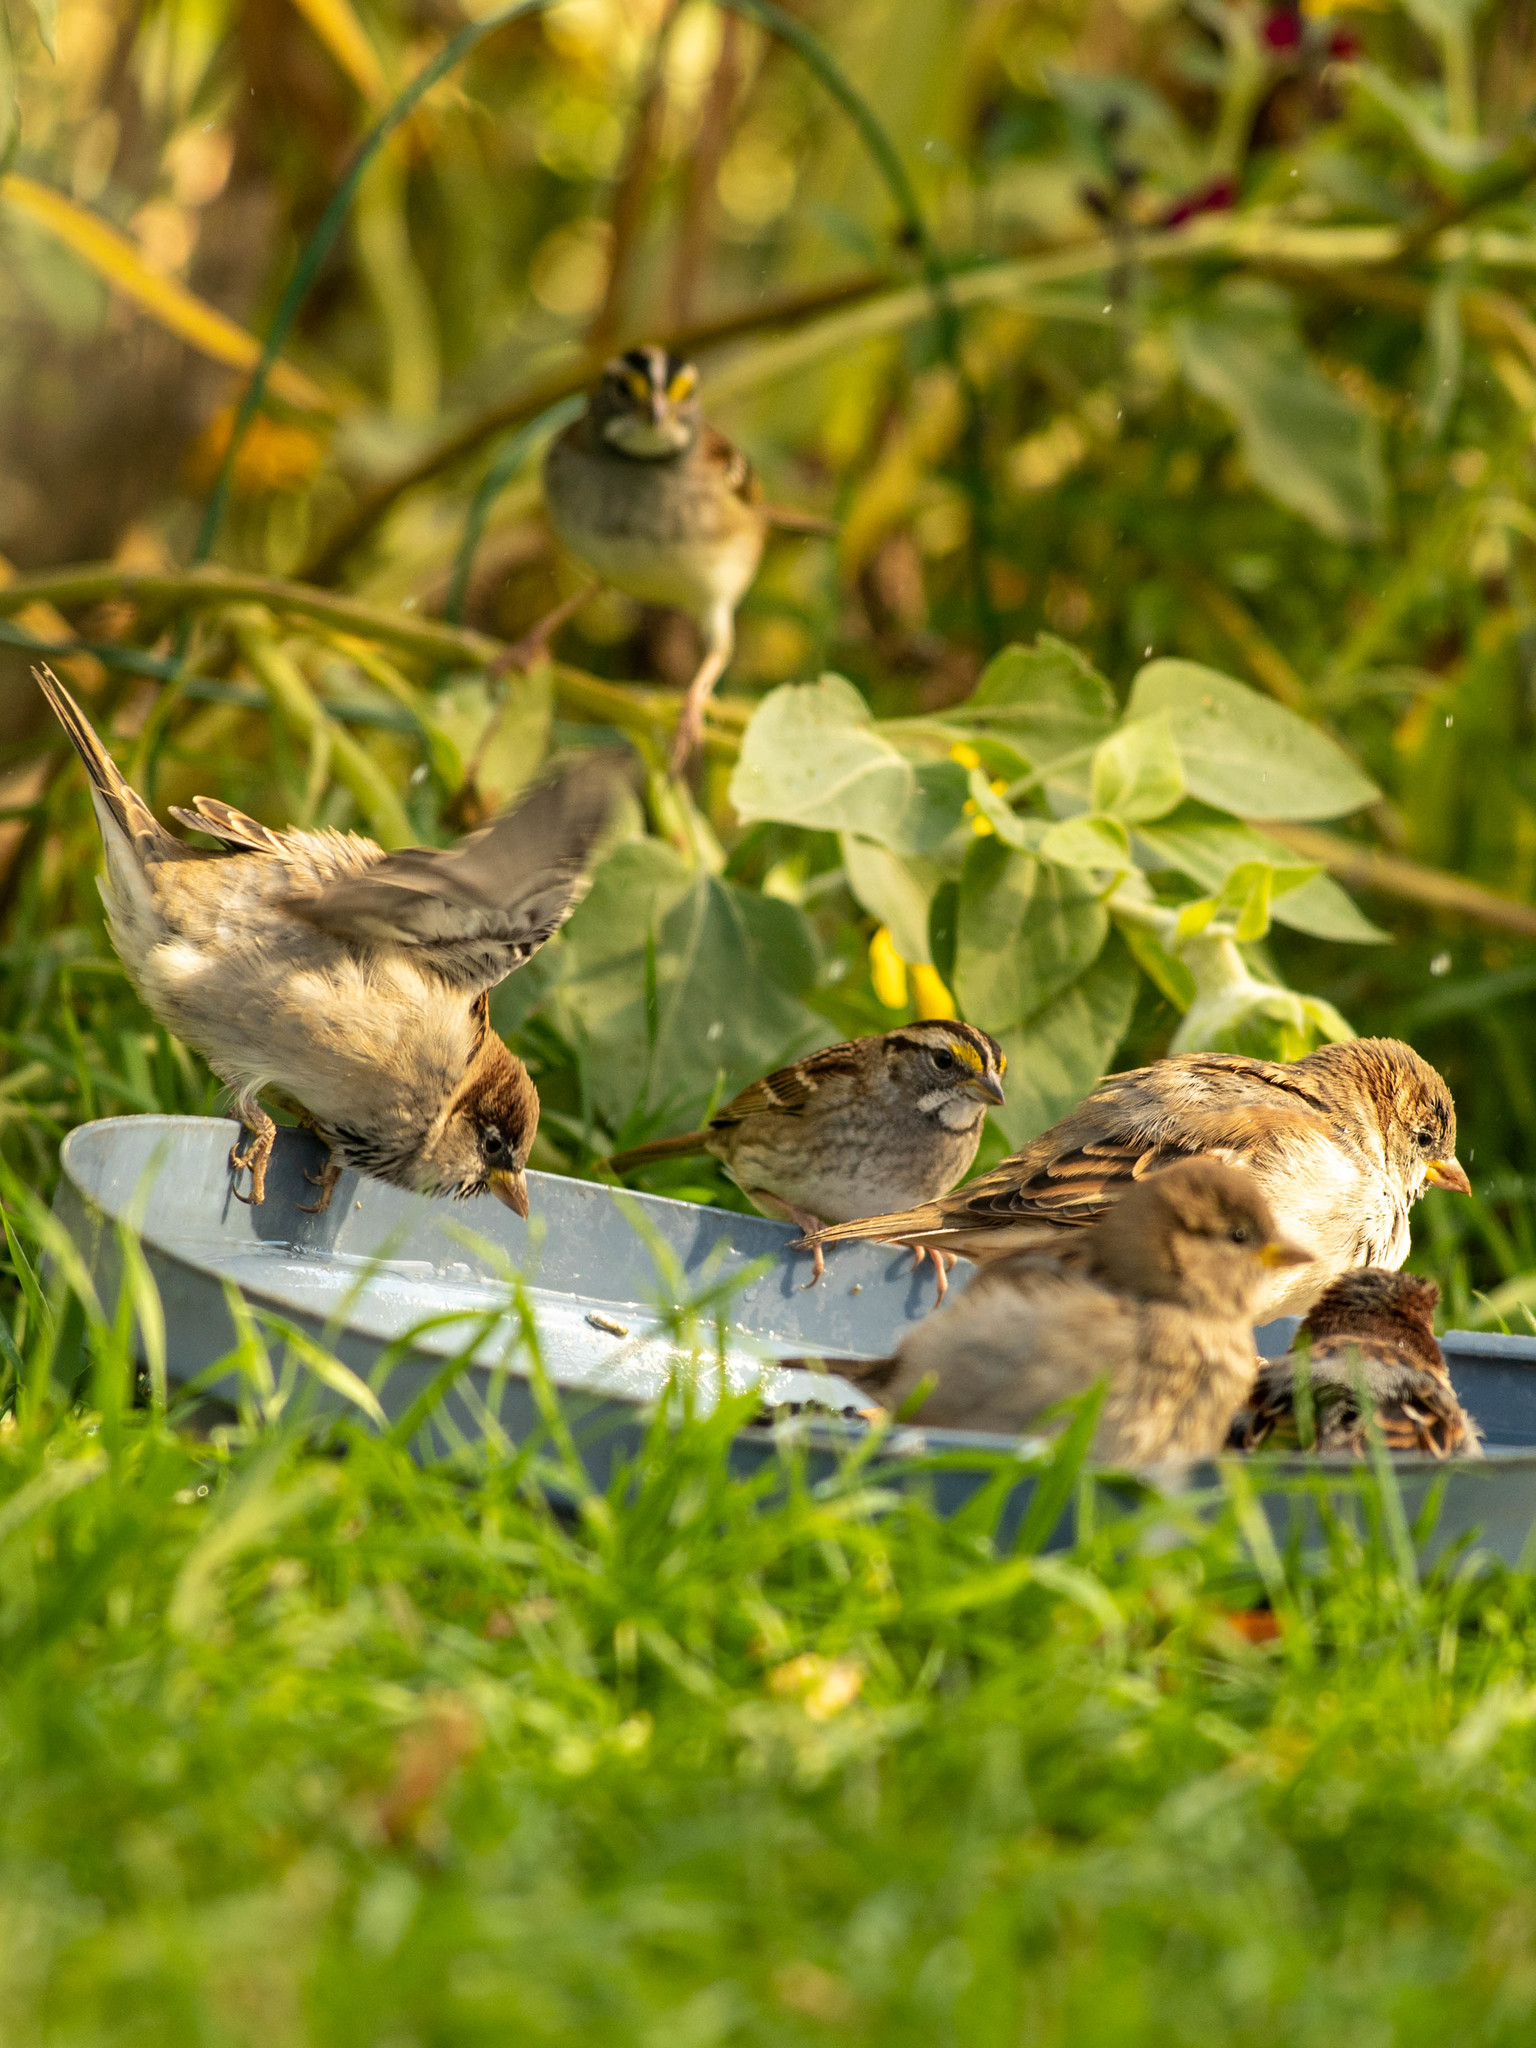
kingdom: Animalia
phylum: Chordata
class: Aves
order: Passeriformes
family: Passerellidae
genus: Zonotrichia
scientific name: Zonotrichia albicollis
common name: White-throated sparrow
